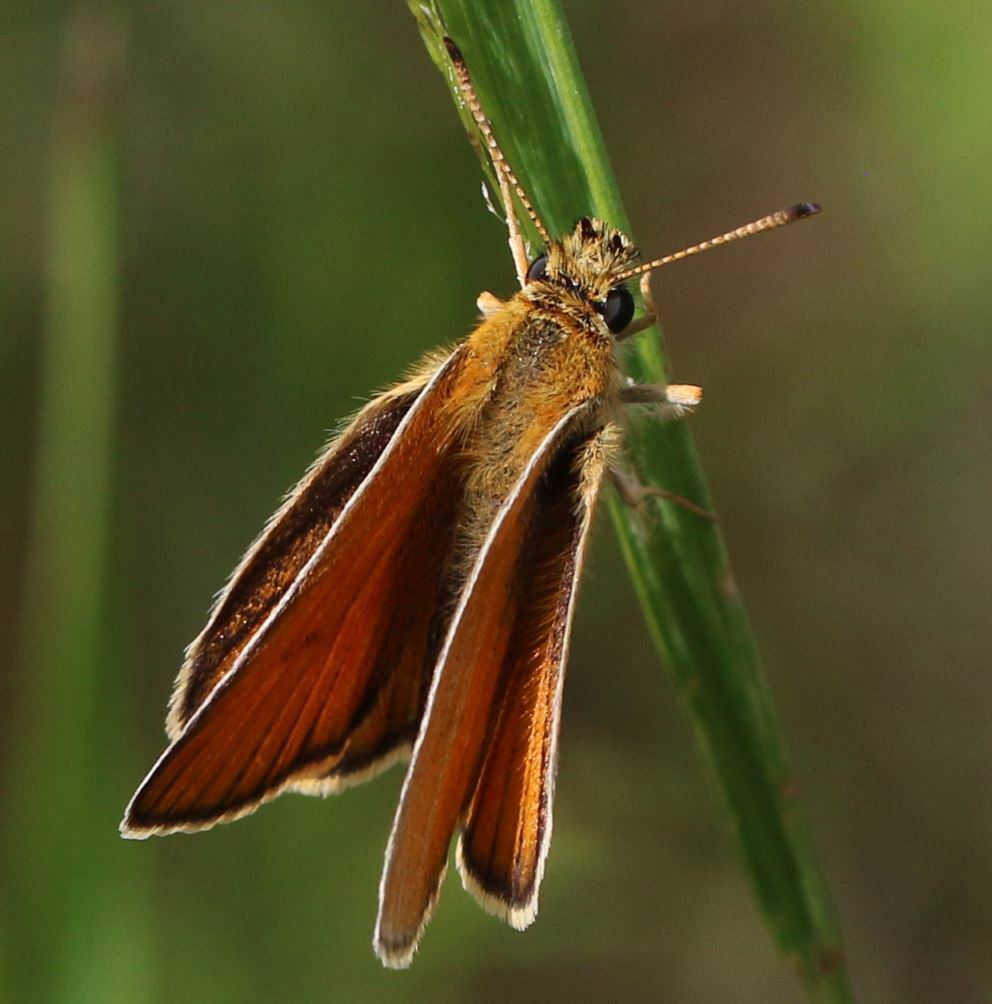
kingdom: Animalia
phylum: Arthropoda
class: Insecta
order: Lepidoptera
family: Hesperiidae
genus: Thymelicus
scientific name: Thymelicus lineola
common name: Essex skipper
